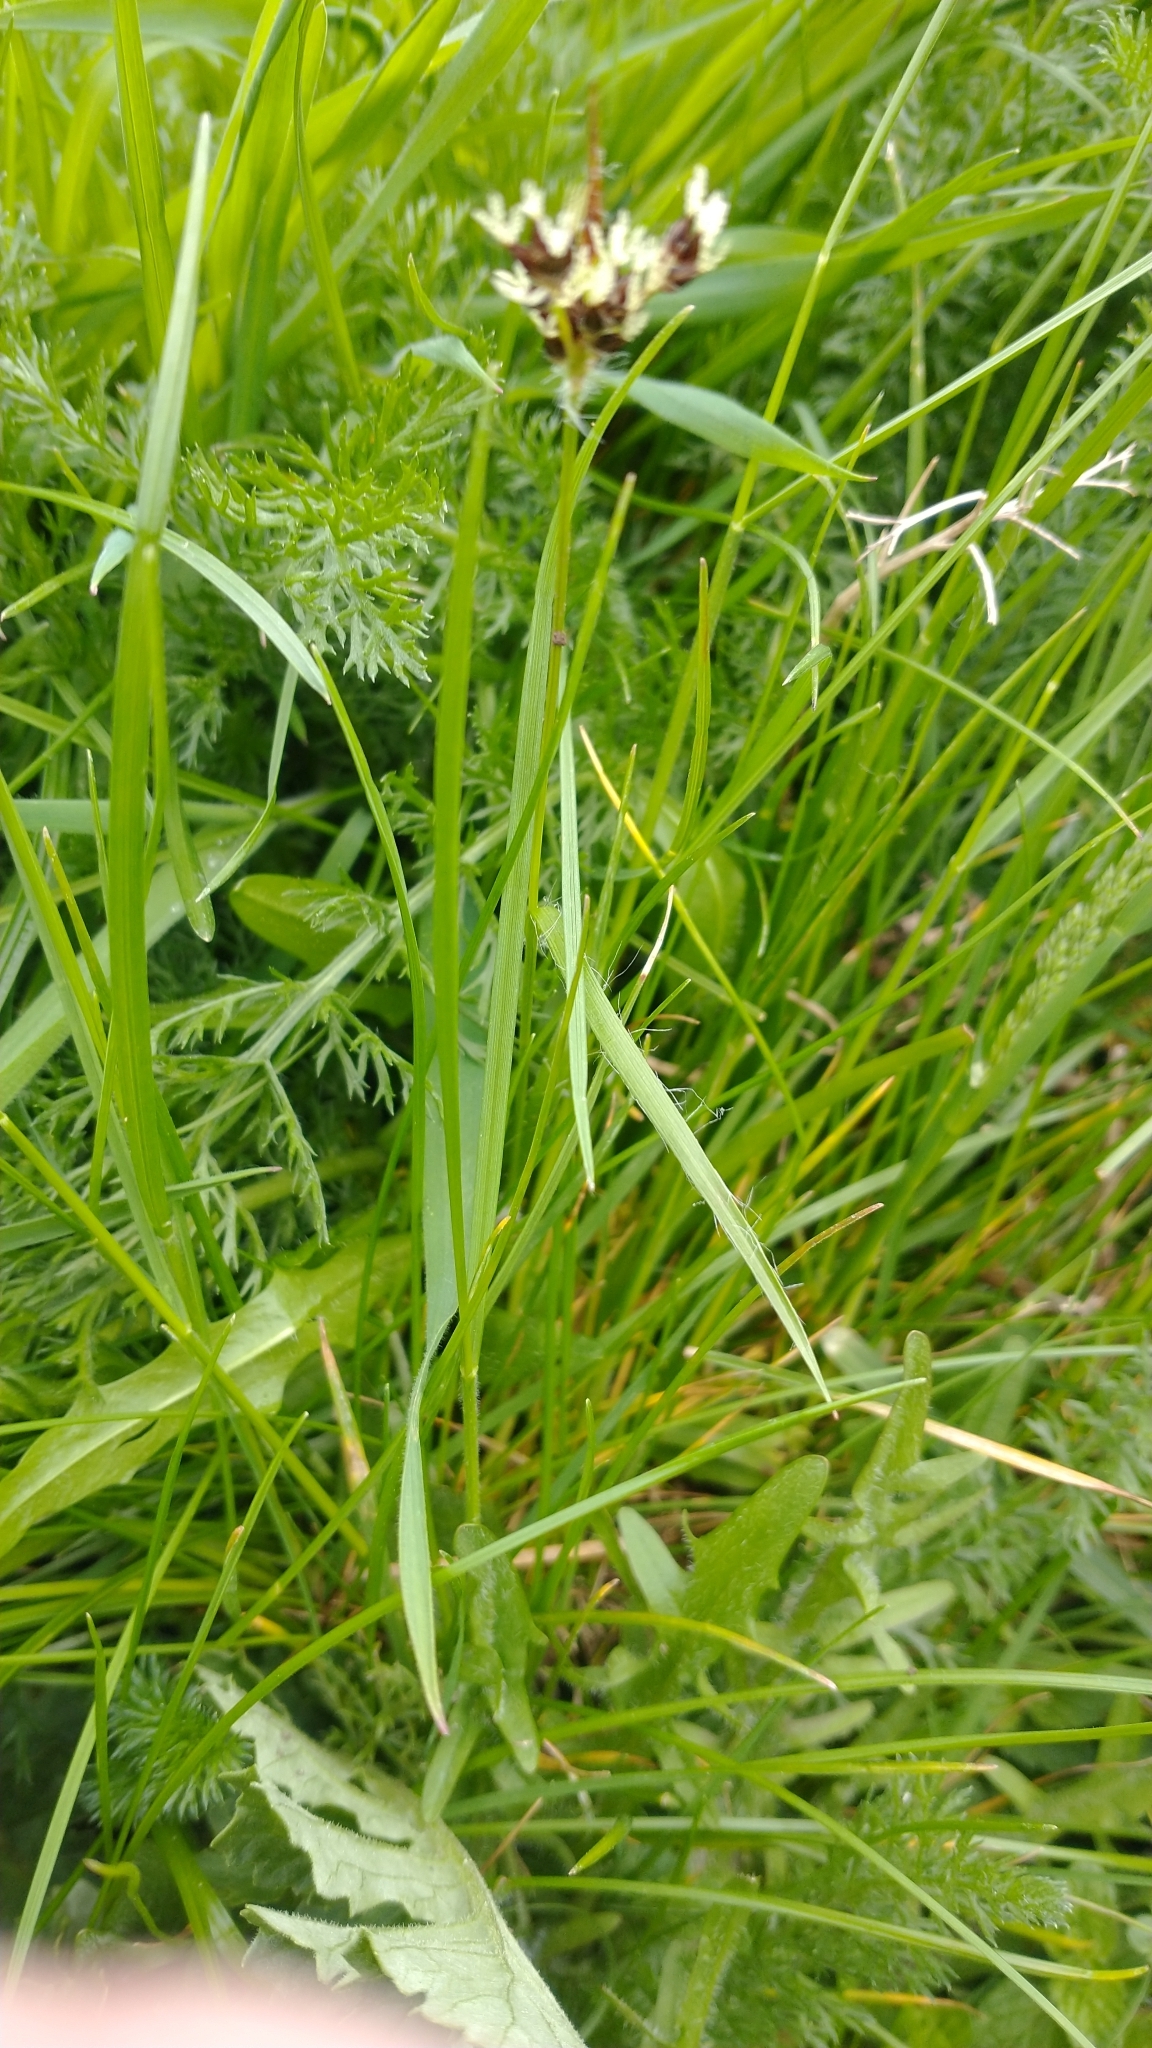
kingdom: Plantae
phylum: Tracheophyta
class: Liliopsida
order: Poales
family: Juncaceae
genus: Luzula
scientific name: Luzula campestris
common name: Field wood-rush
